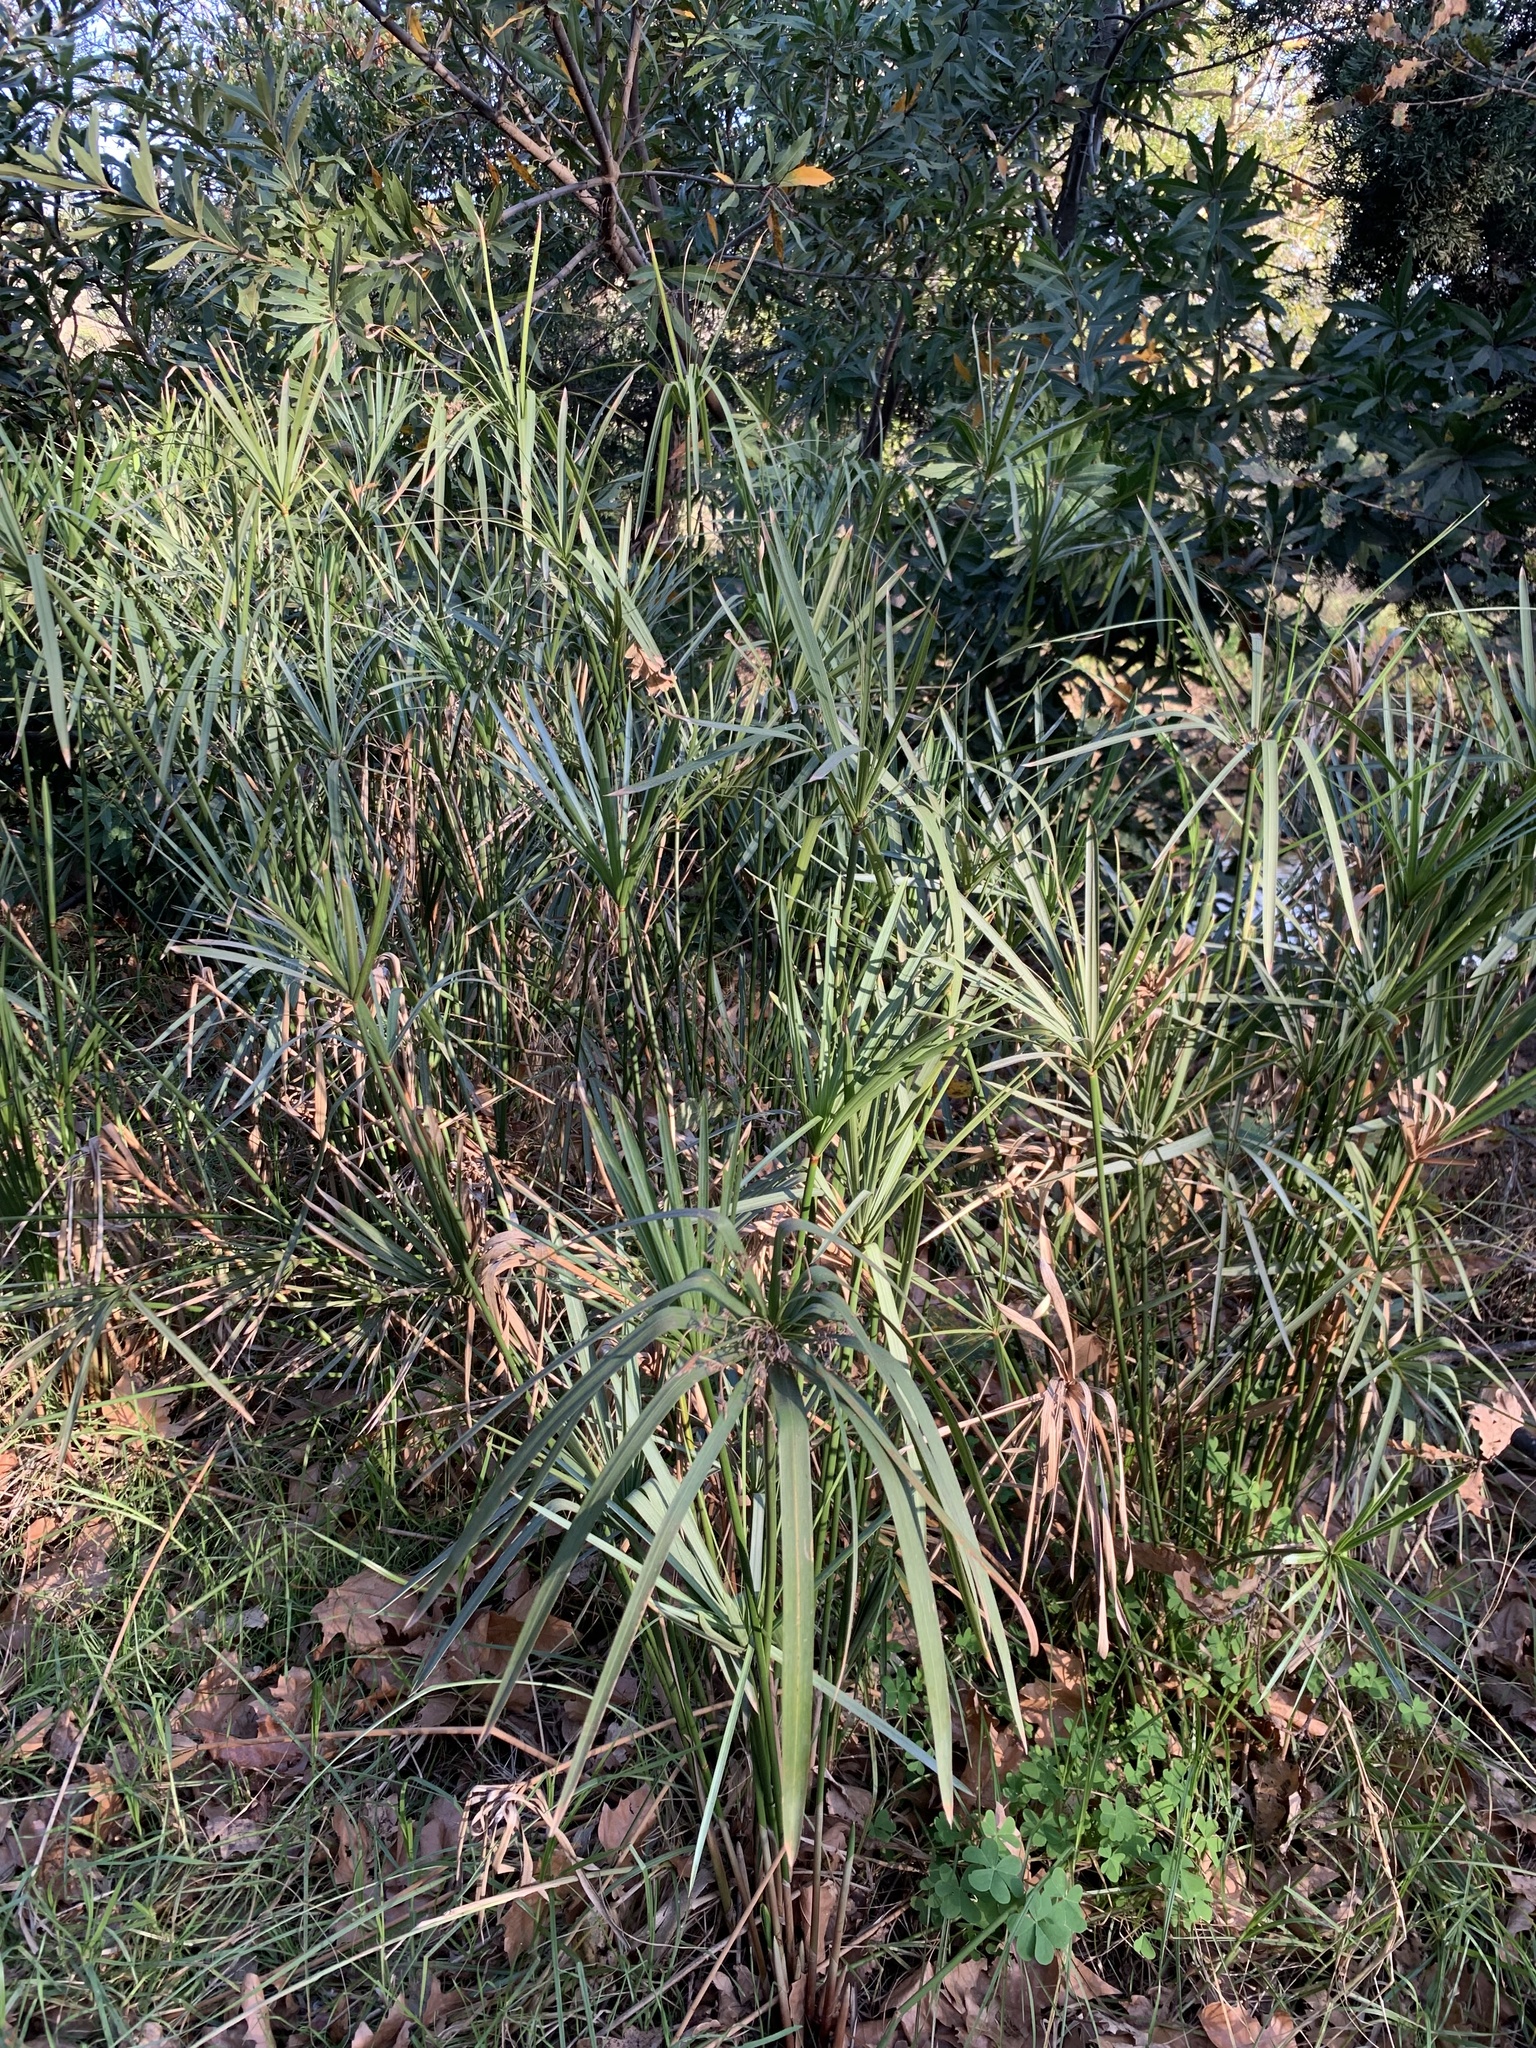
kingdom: Plantae
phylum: Tracheophyta
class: Liliopsida
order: Poales
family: Cyperaceae
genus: Cyperus
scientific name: Cyperus textilis
